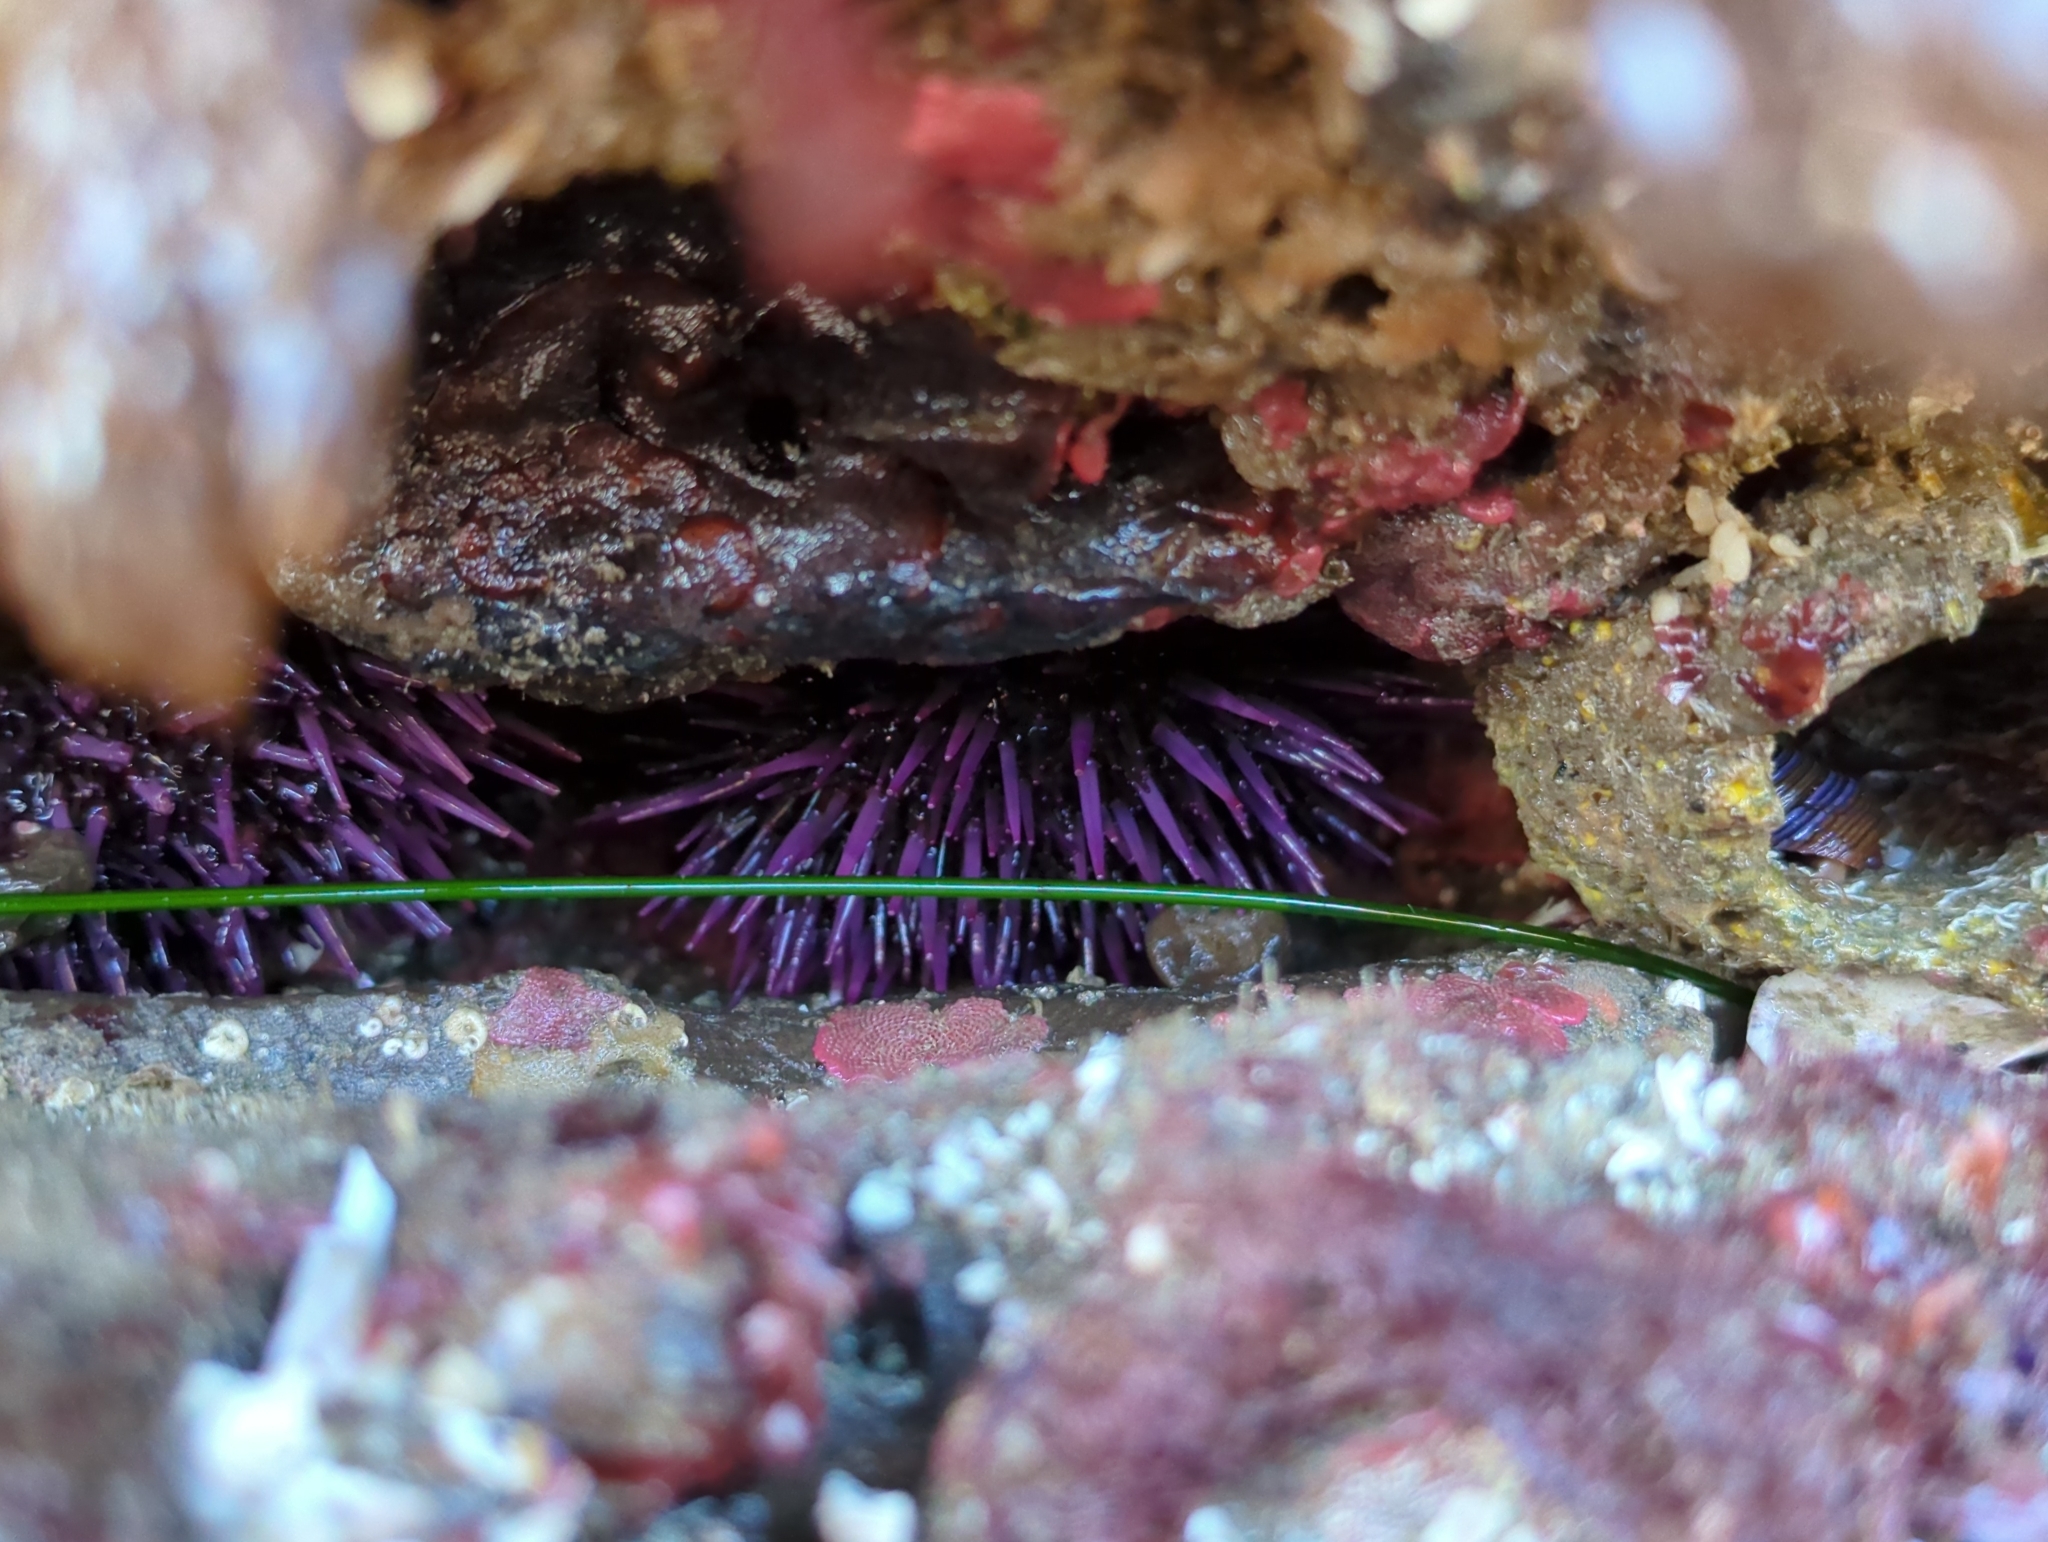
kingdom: Animalia
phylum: Echinodermata
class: Echinoidea
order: Camarodonta
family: Strongylocentrotidae
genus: Strongylocentrotus
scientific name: Strongylocentrotus purpuratus
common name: Purple sea urchin
